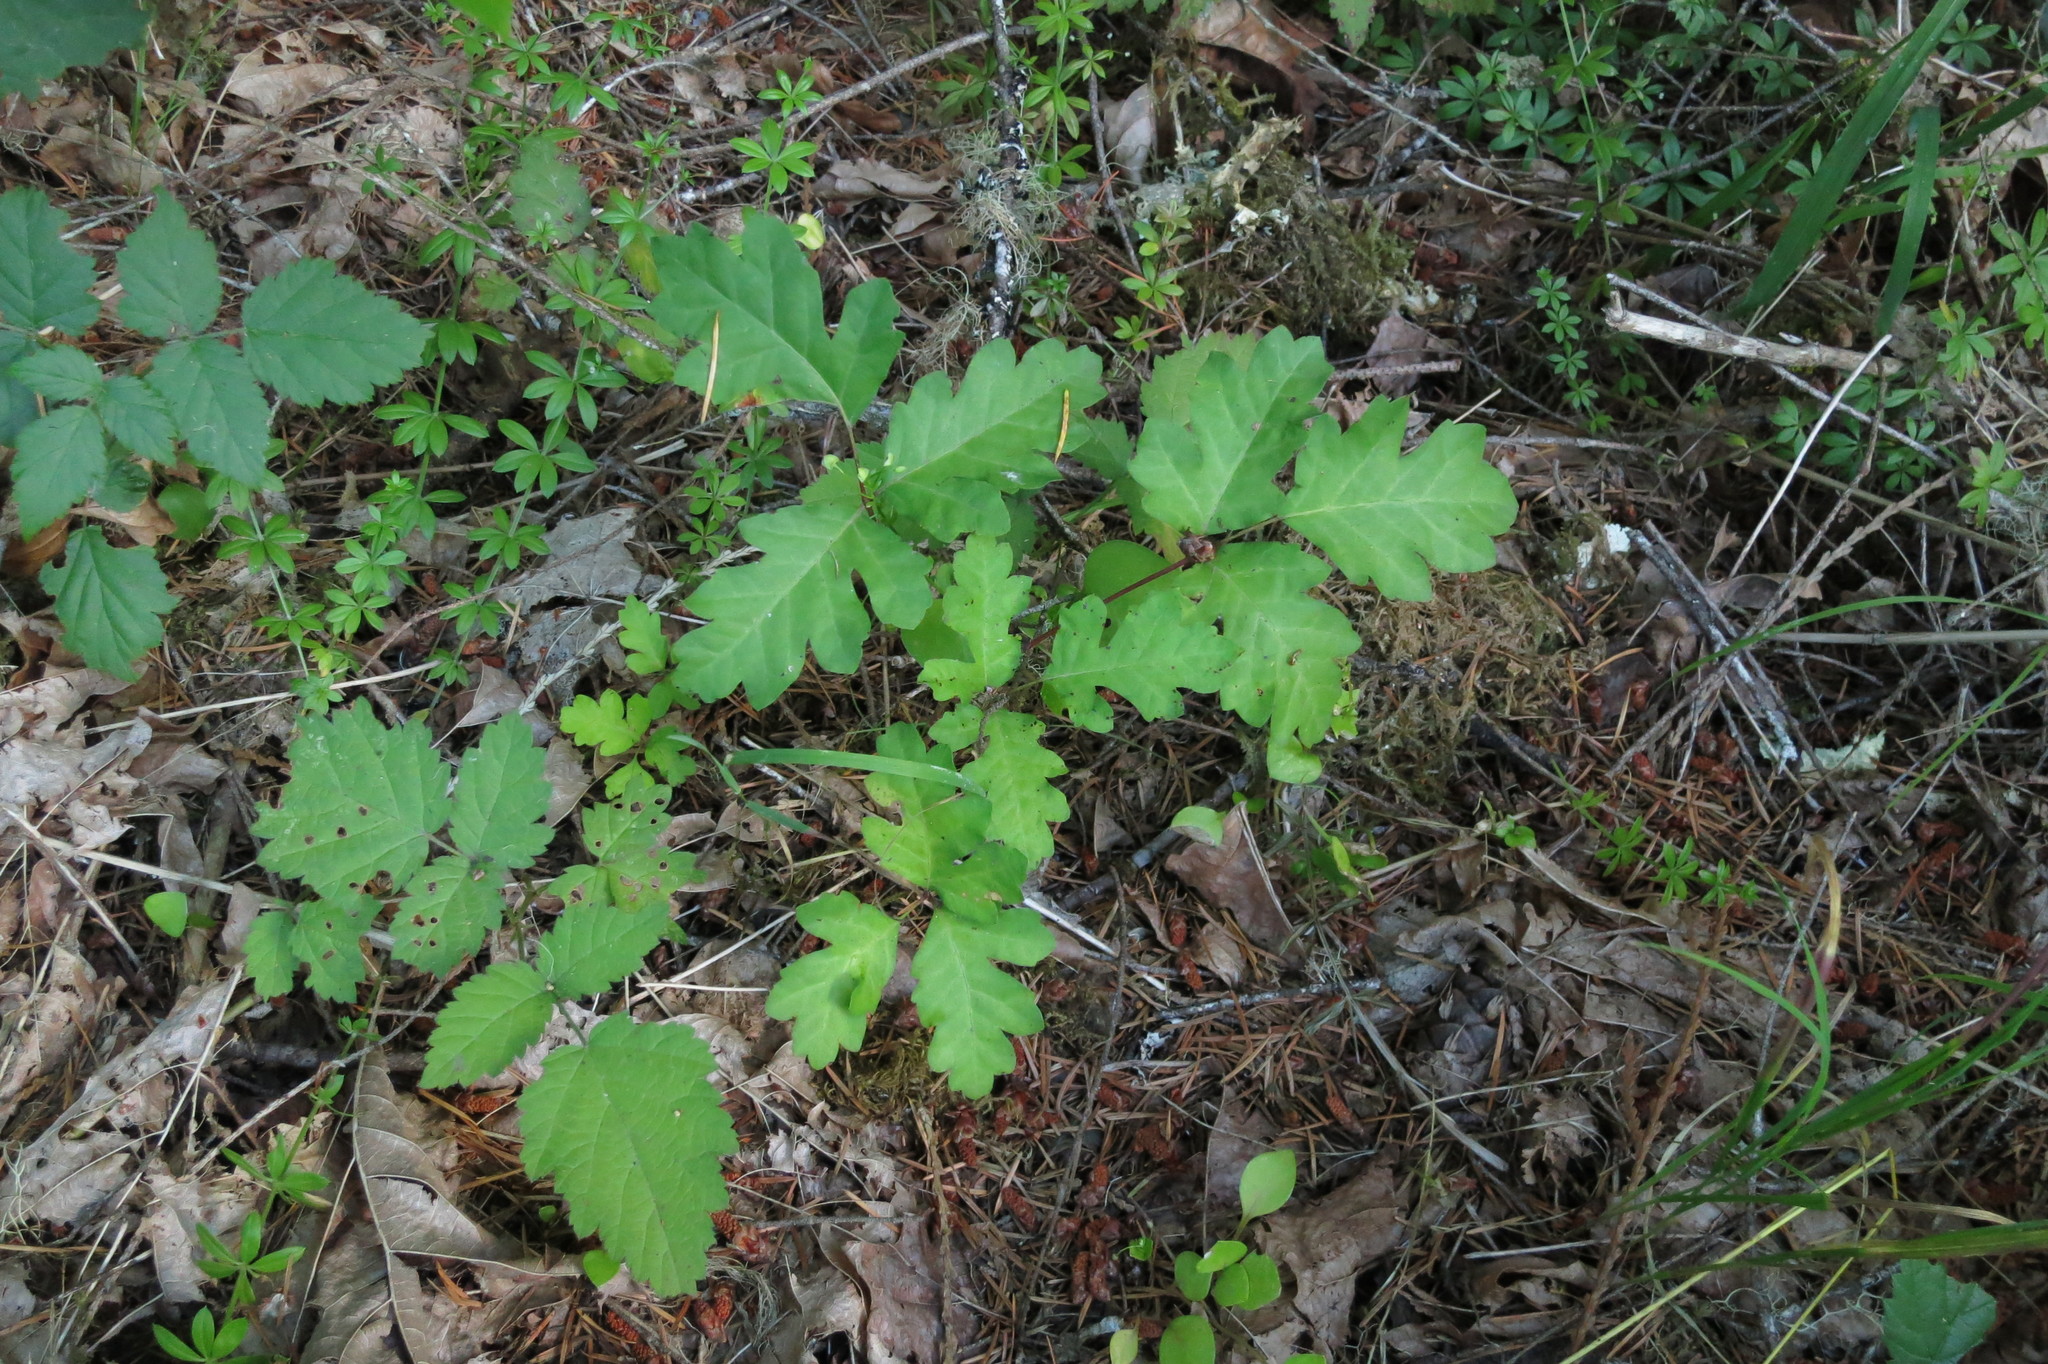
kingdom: Plantae
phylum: Tracheophyta
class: Magnoliopsida
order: Sapindales
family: Anacardiaceae
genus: Toxicodendron
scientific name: Toxicodendron diversilobum
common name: Pacific poison-oak
